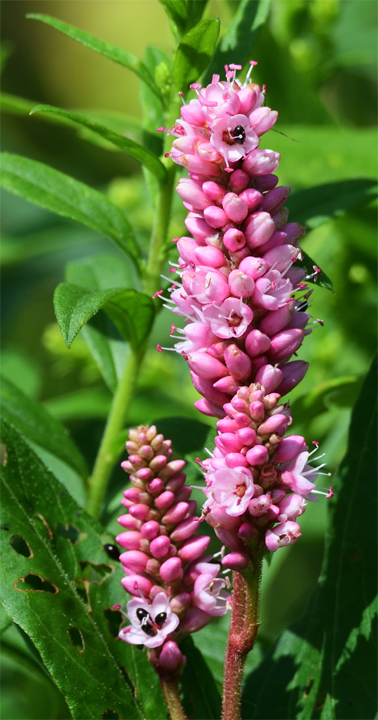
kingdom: Plantae
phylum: Tracheophyta
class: Magnoliopsida
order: Caryophyllales
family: Polygonaceae
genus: Persicaria
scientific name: Persicaria amphibia
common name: Amphibious bistort
